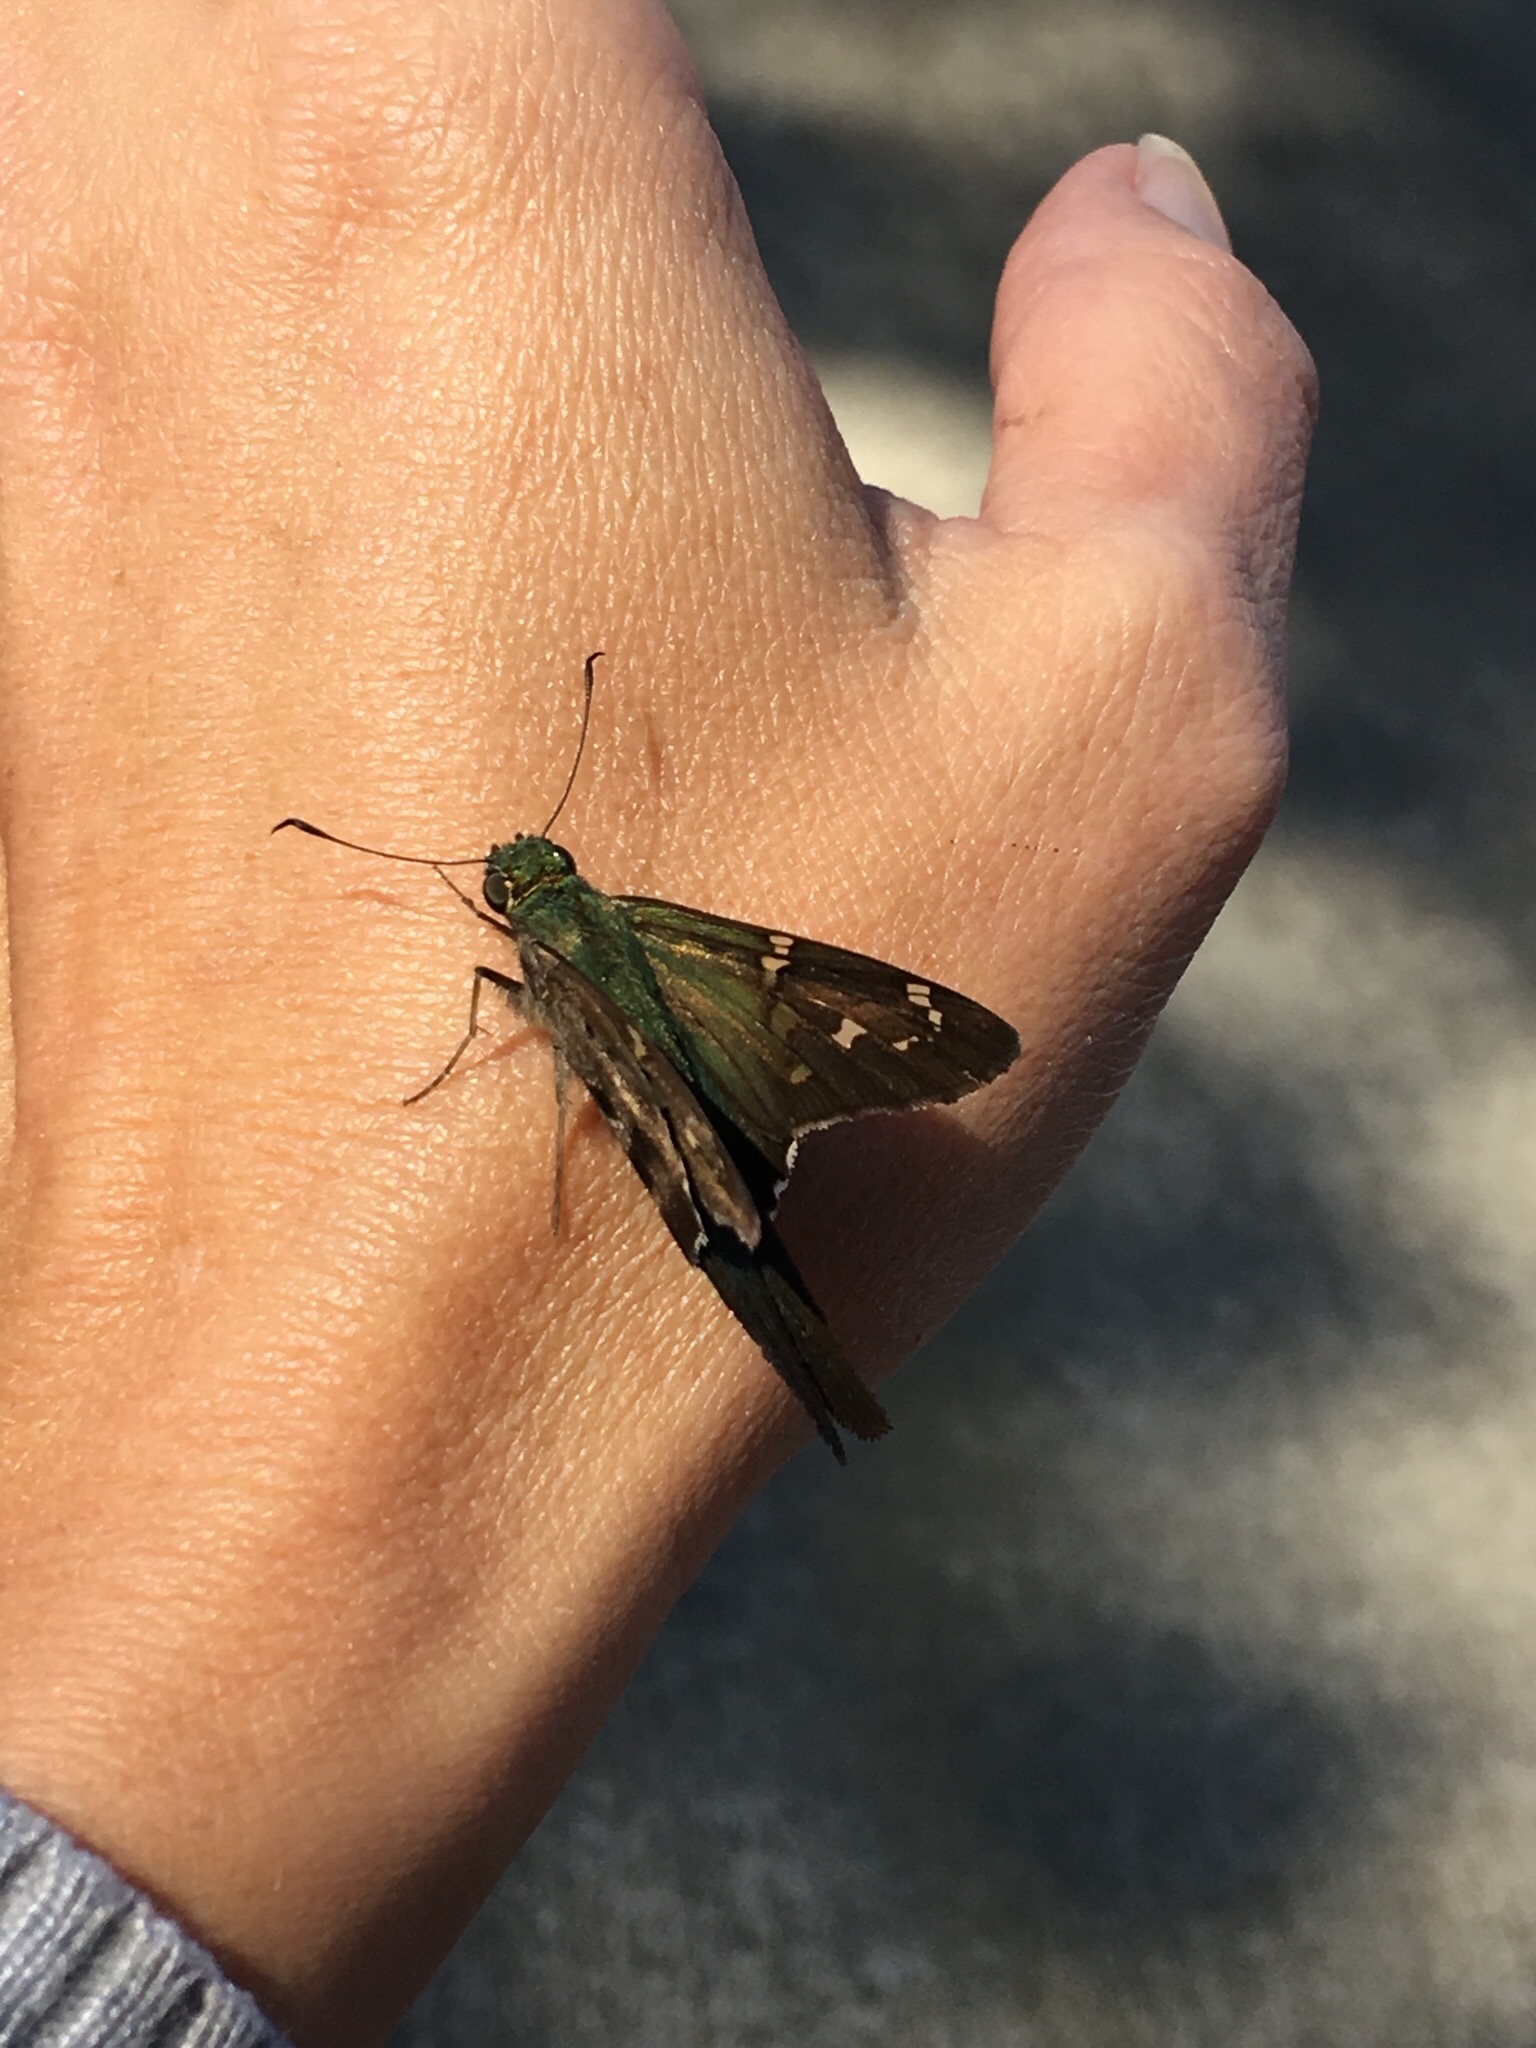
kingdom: Animalia
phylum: Arthropoda
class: Insecta
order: Lepidoptera
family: Hesperiidae
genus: Urbanus
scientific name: Urbanus proteus
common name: Long-tailed skipper
